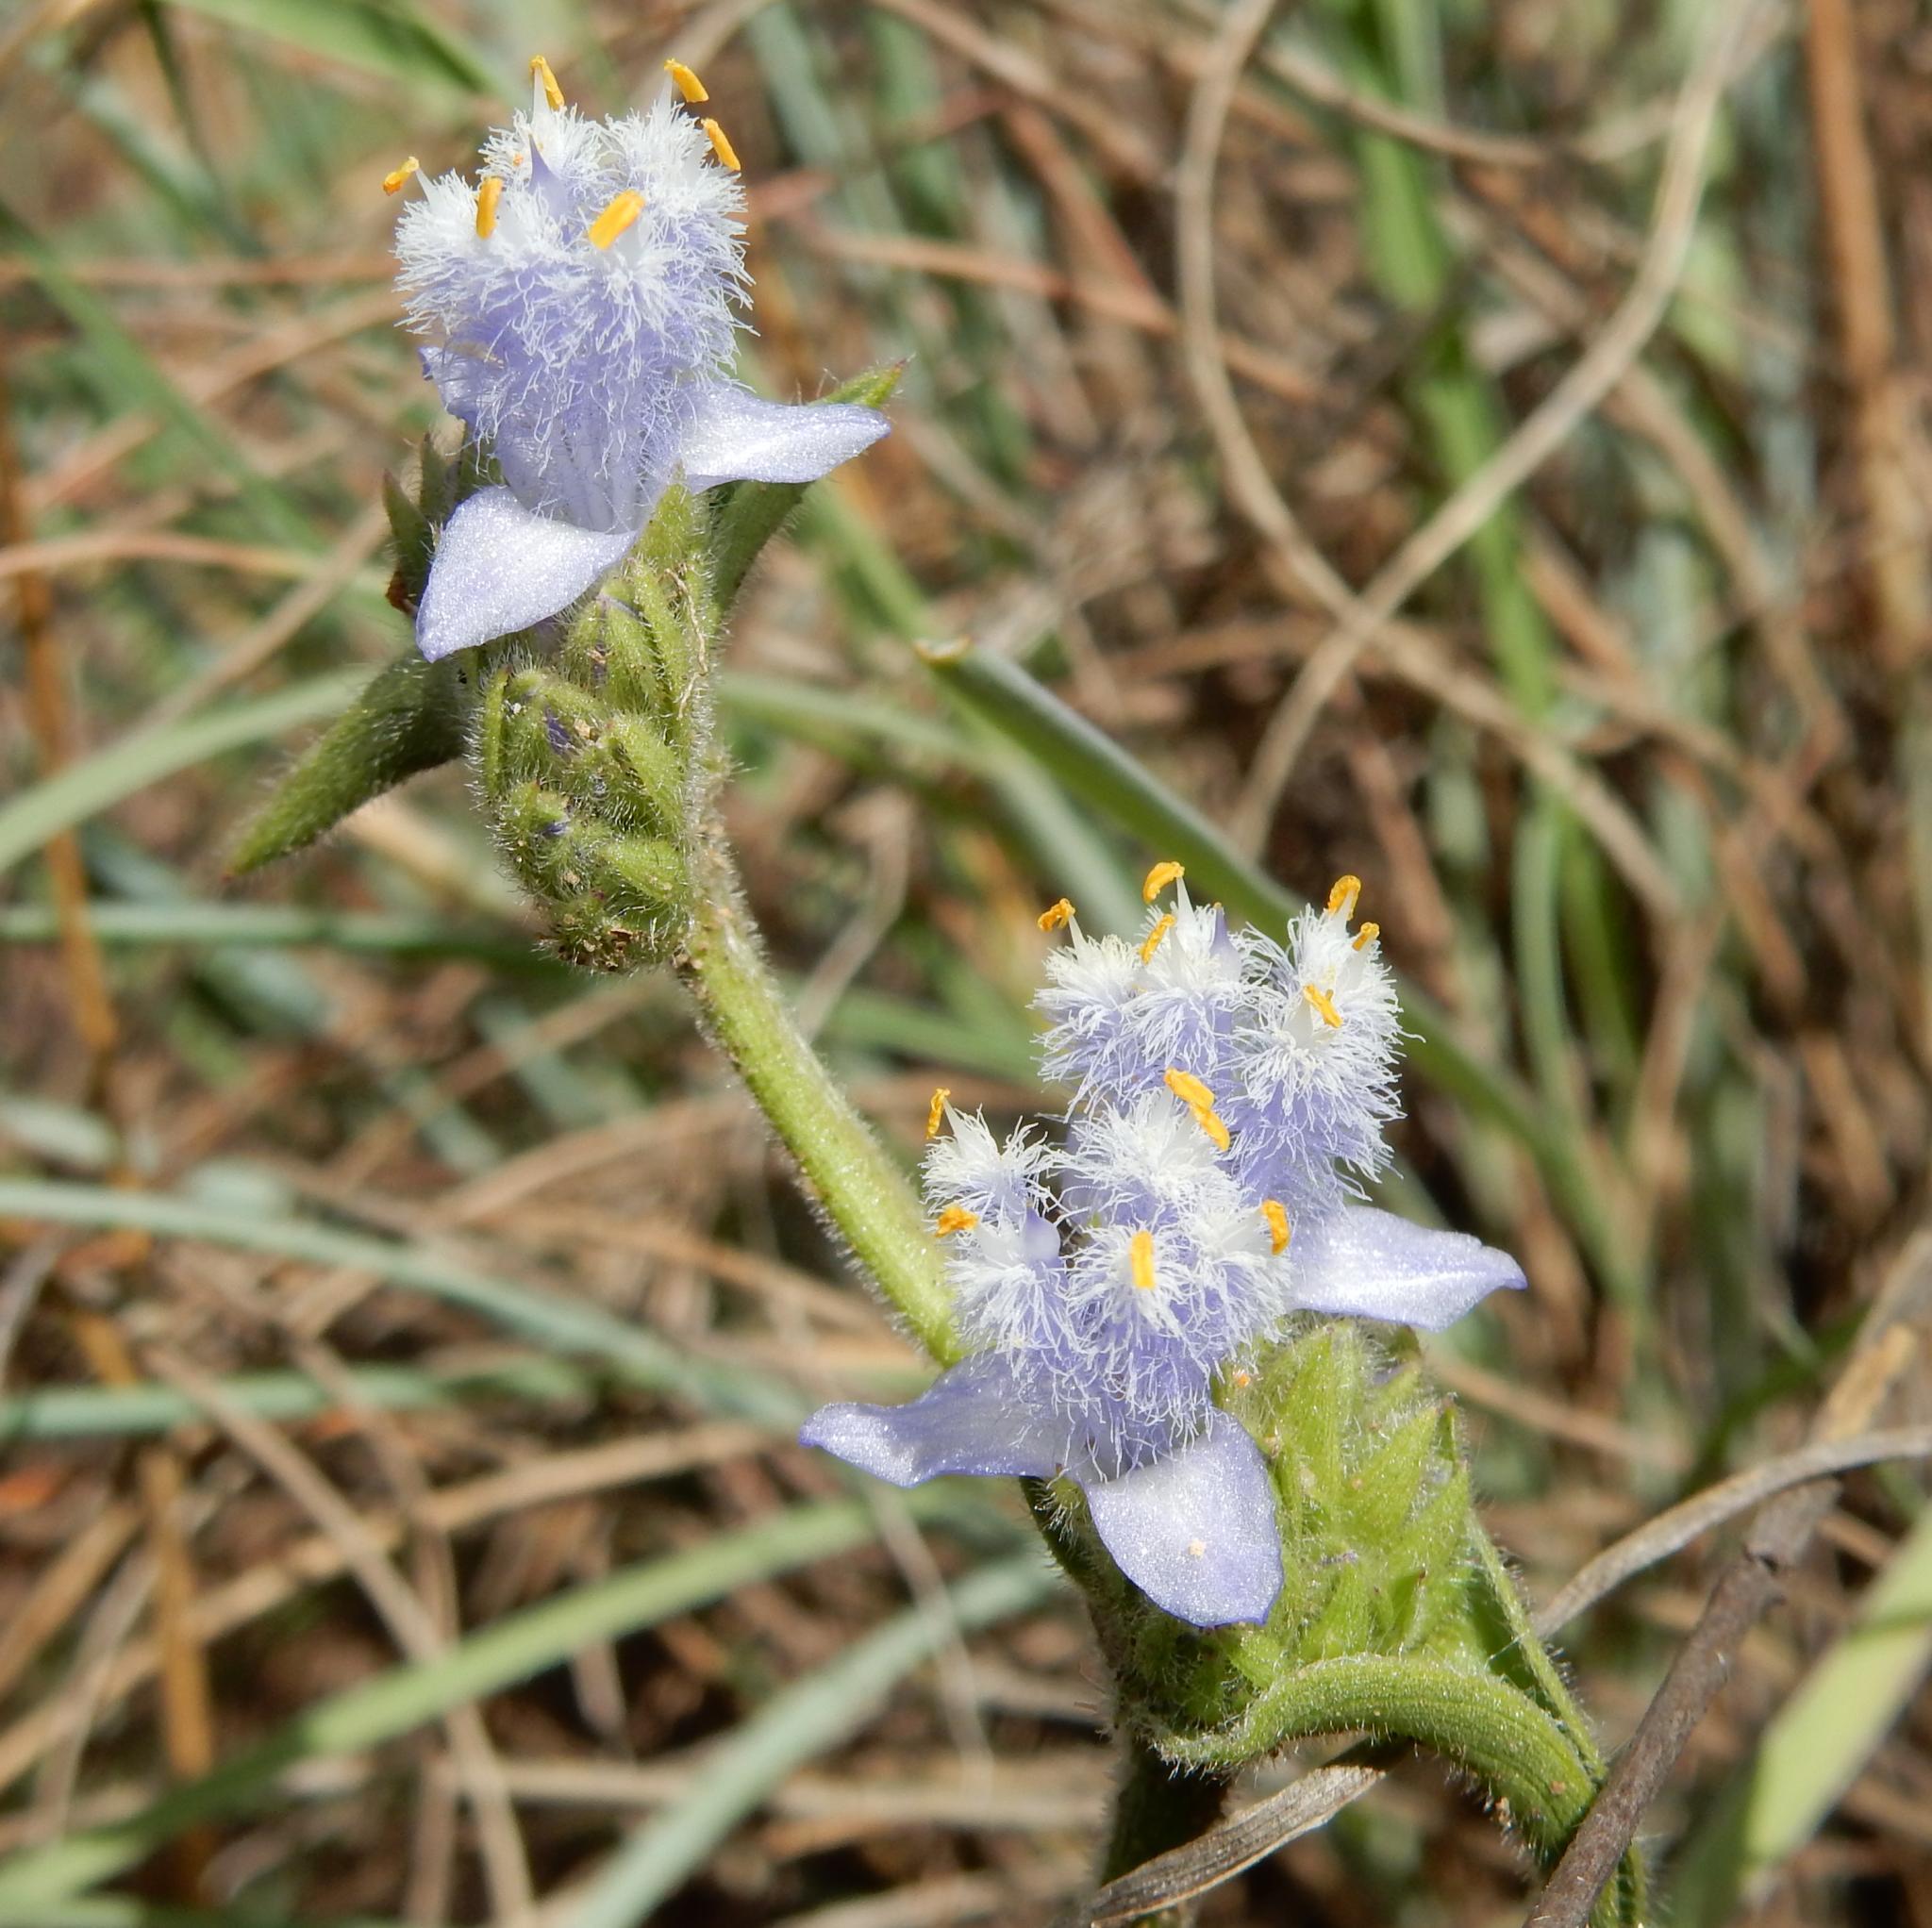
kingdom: Plantae
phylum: Tracheophyta
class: Liliopsida
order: Commelinales
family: Commelinaceae
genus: Cyanotis
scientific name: Cyanotis speciosa
